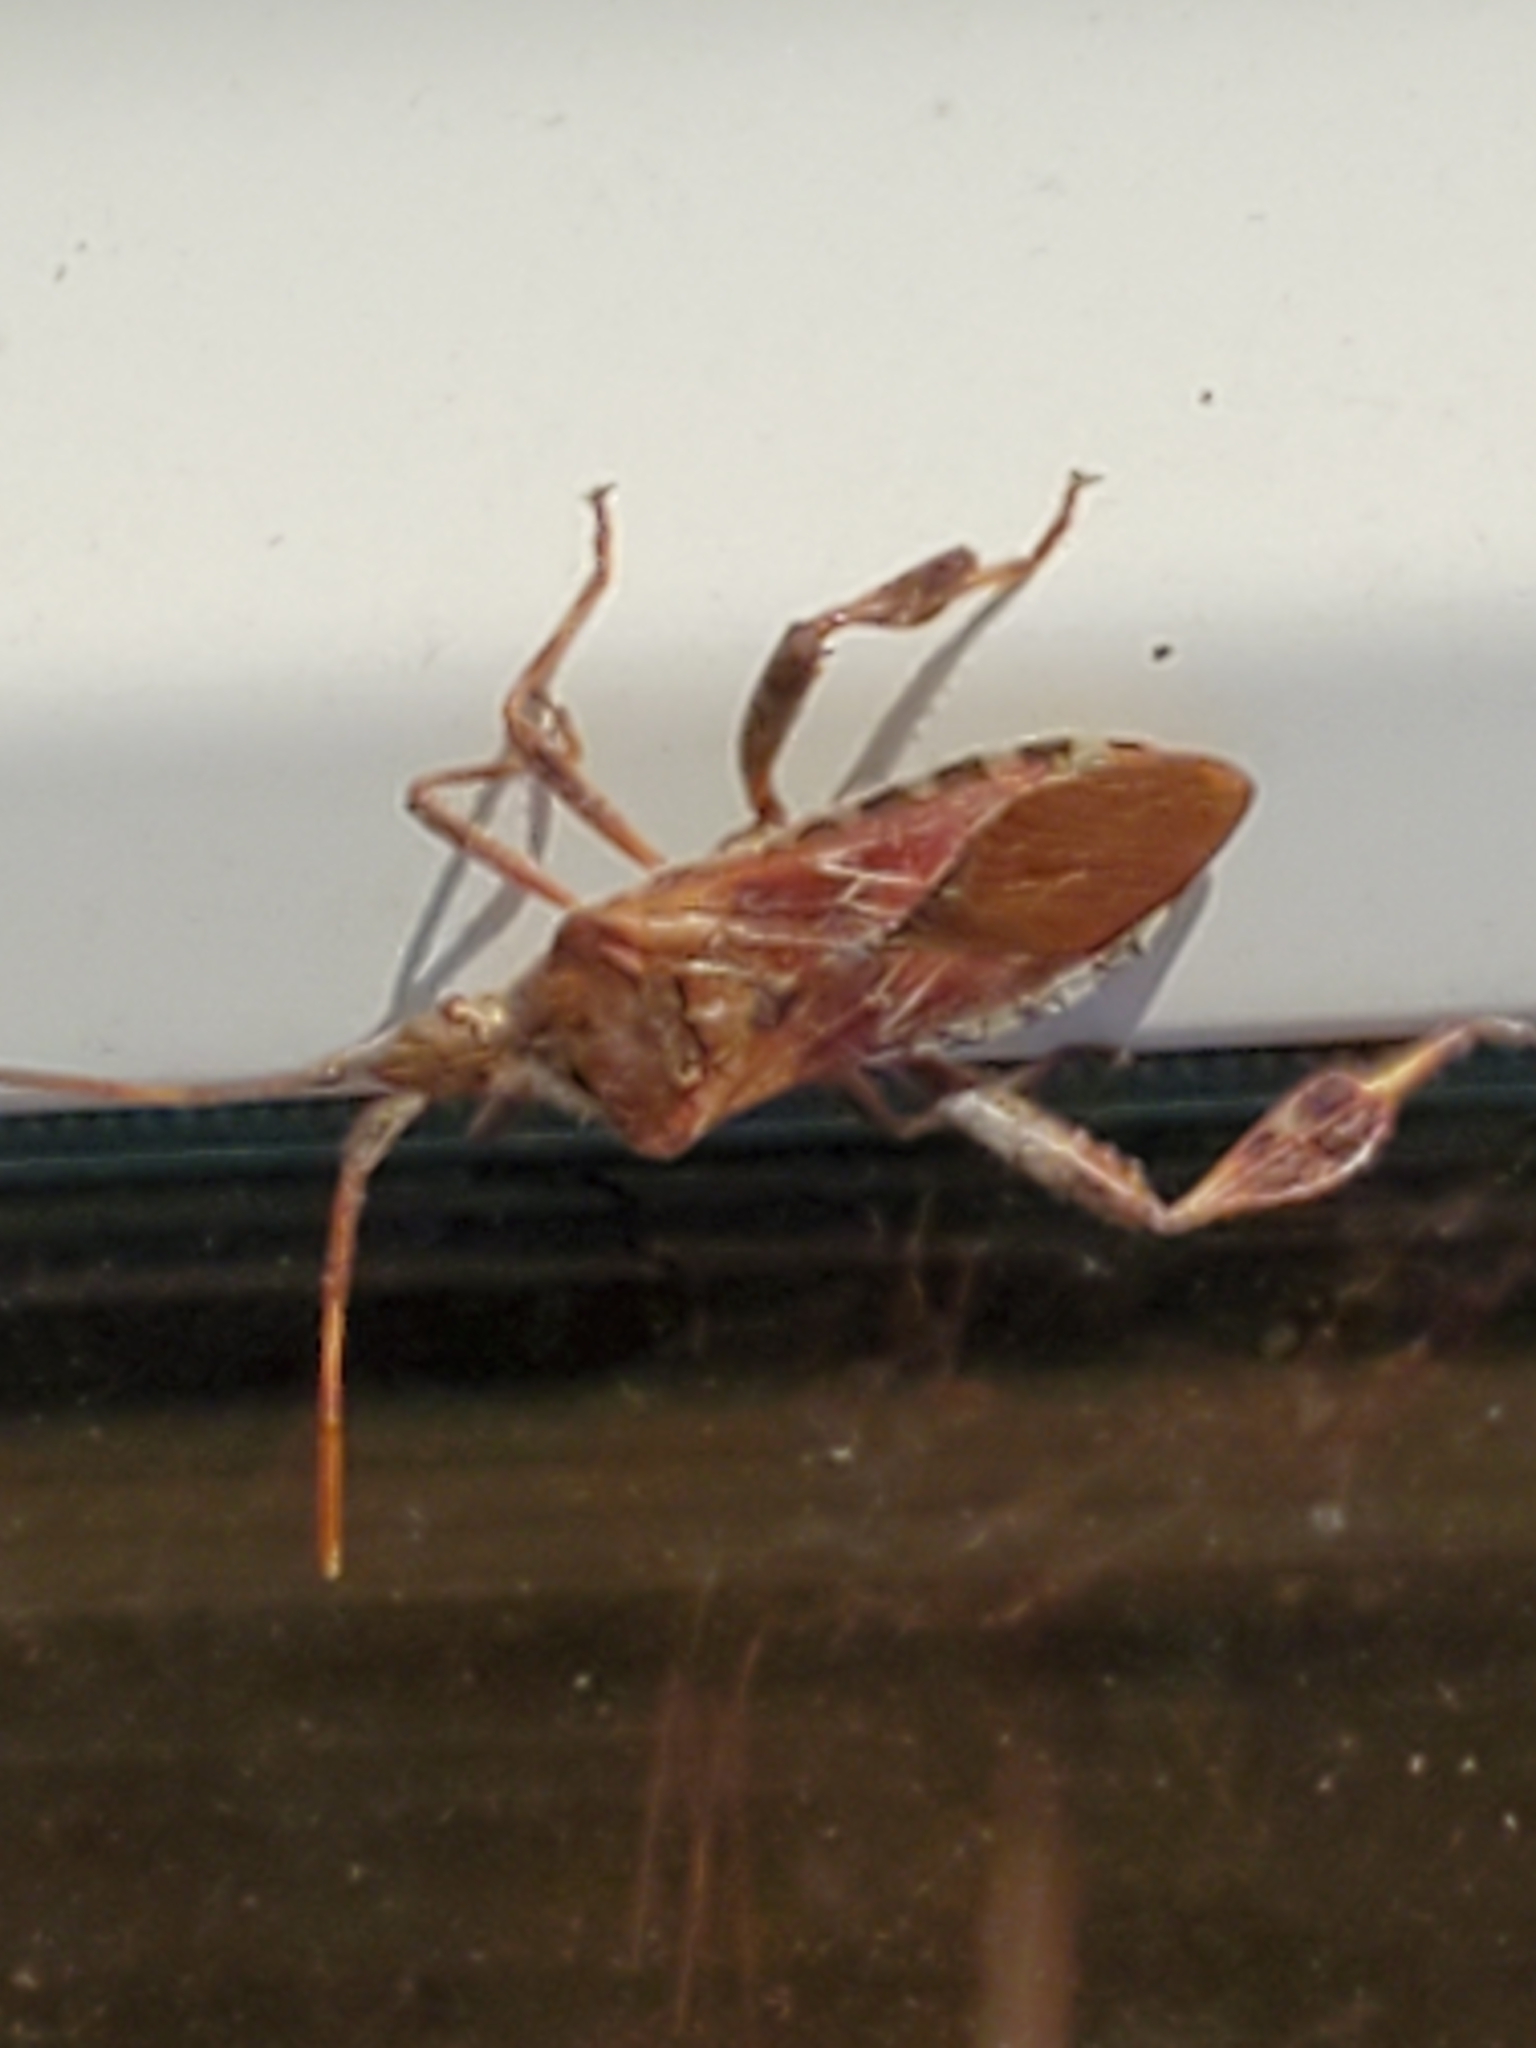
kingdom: Animalia
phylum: Arthropoda
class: Insecta
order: Hemiptera
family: Coreidae
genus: Leptoglossus
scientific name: Leptoglossus occidentalis
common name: Western conifer-seed bug
